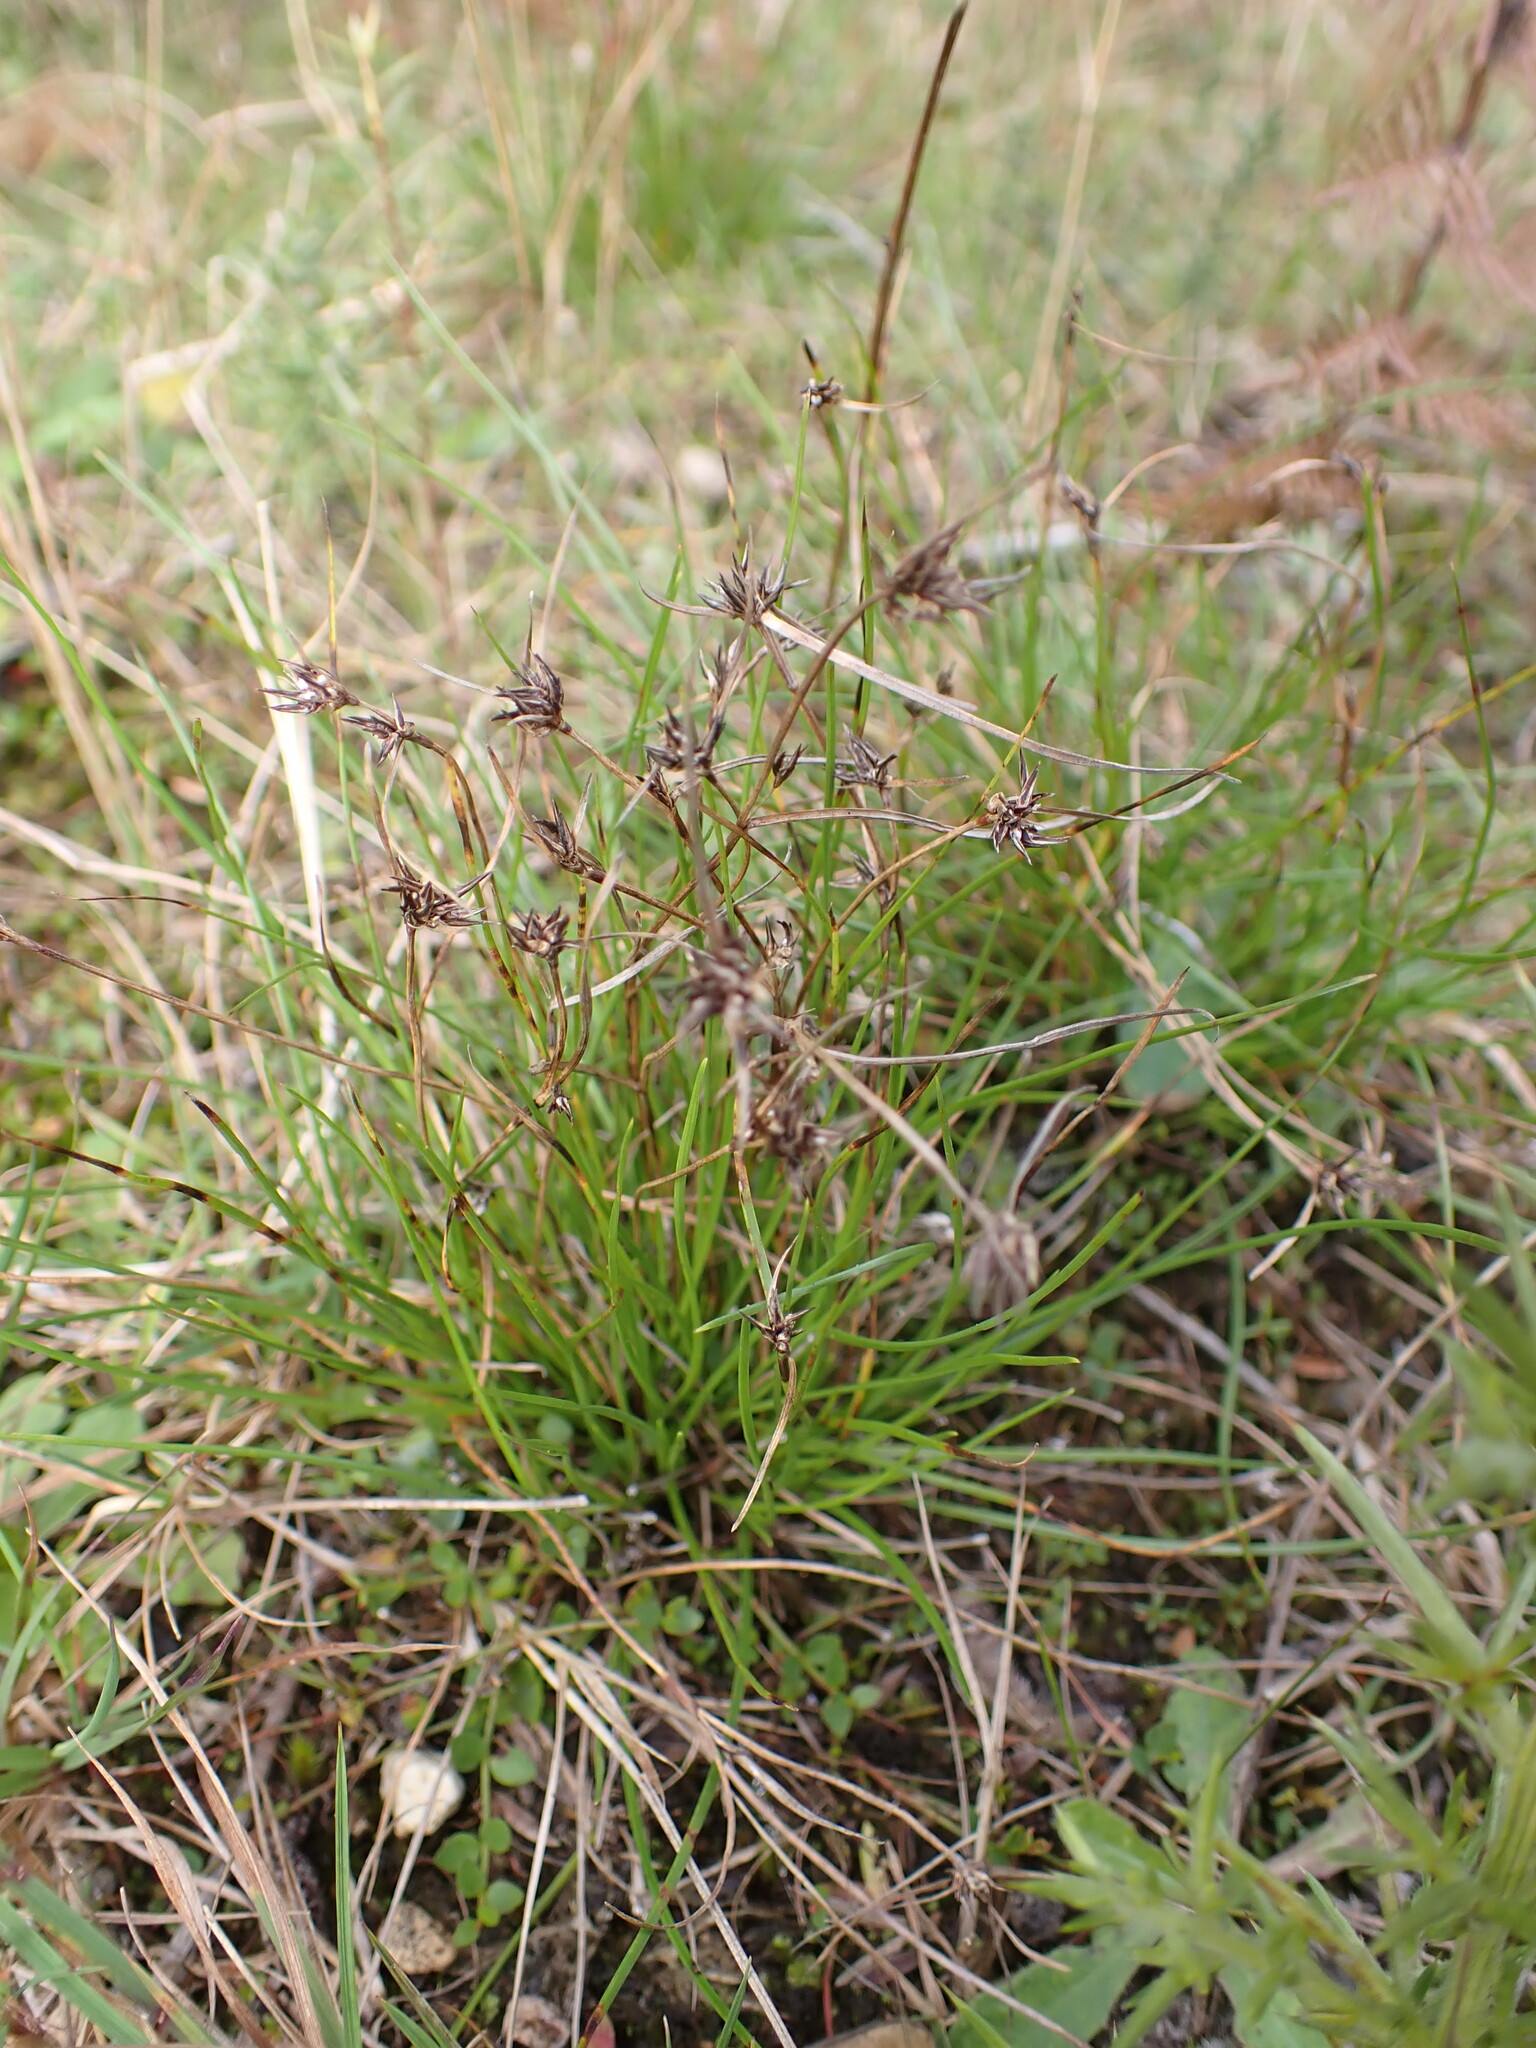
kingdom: Plantae
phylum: Tracheophyta
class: Liliopsida
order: Poales
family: Cyperaceae
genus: Schoenus
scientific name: Schoenus apogon
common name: Smooth bogrush
